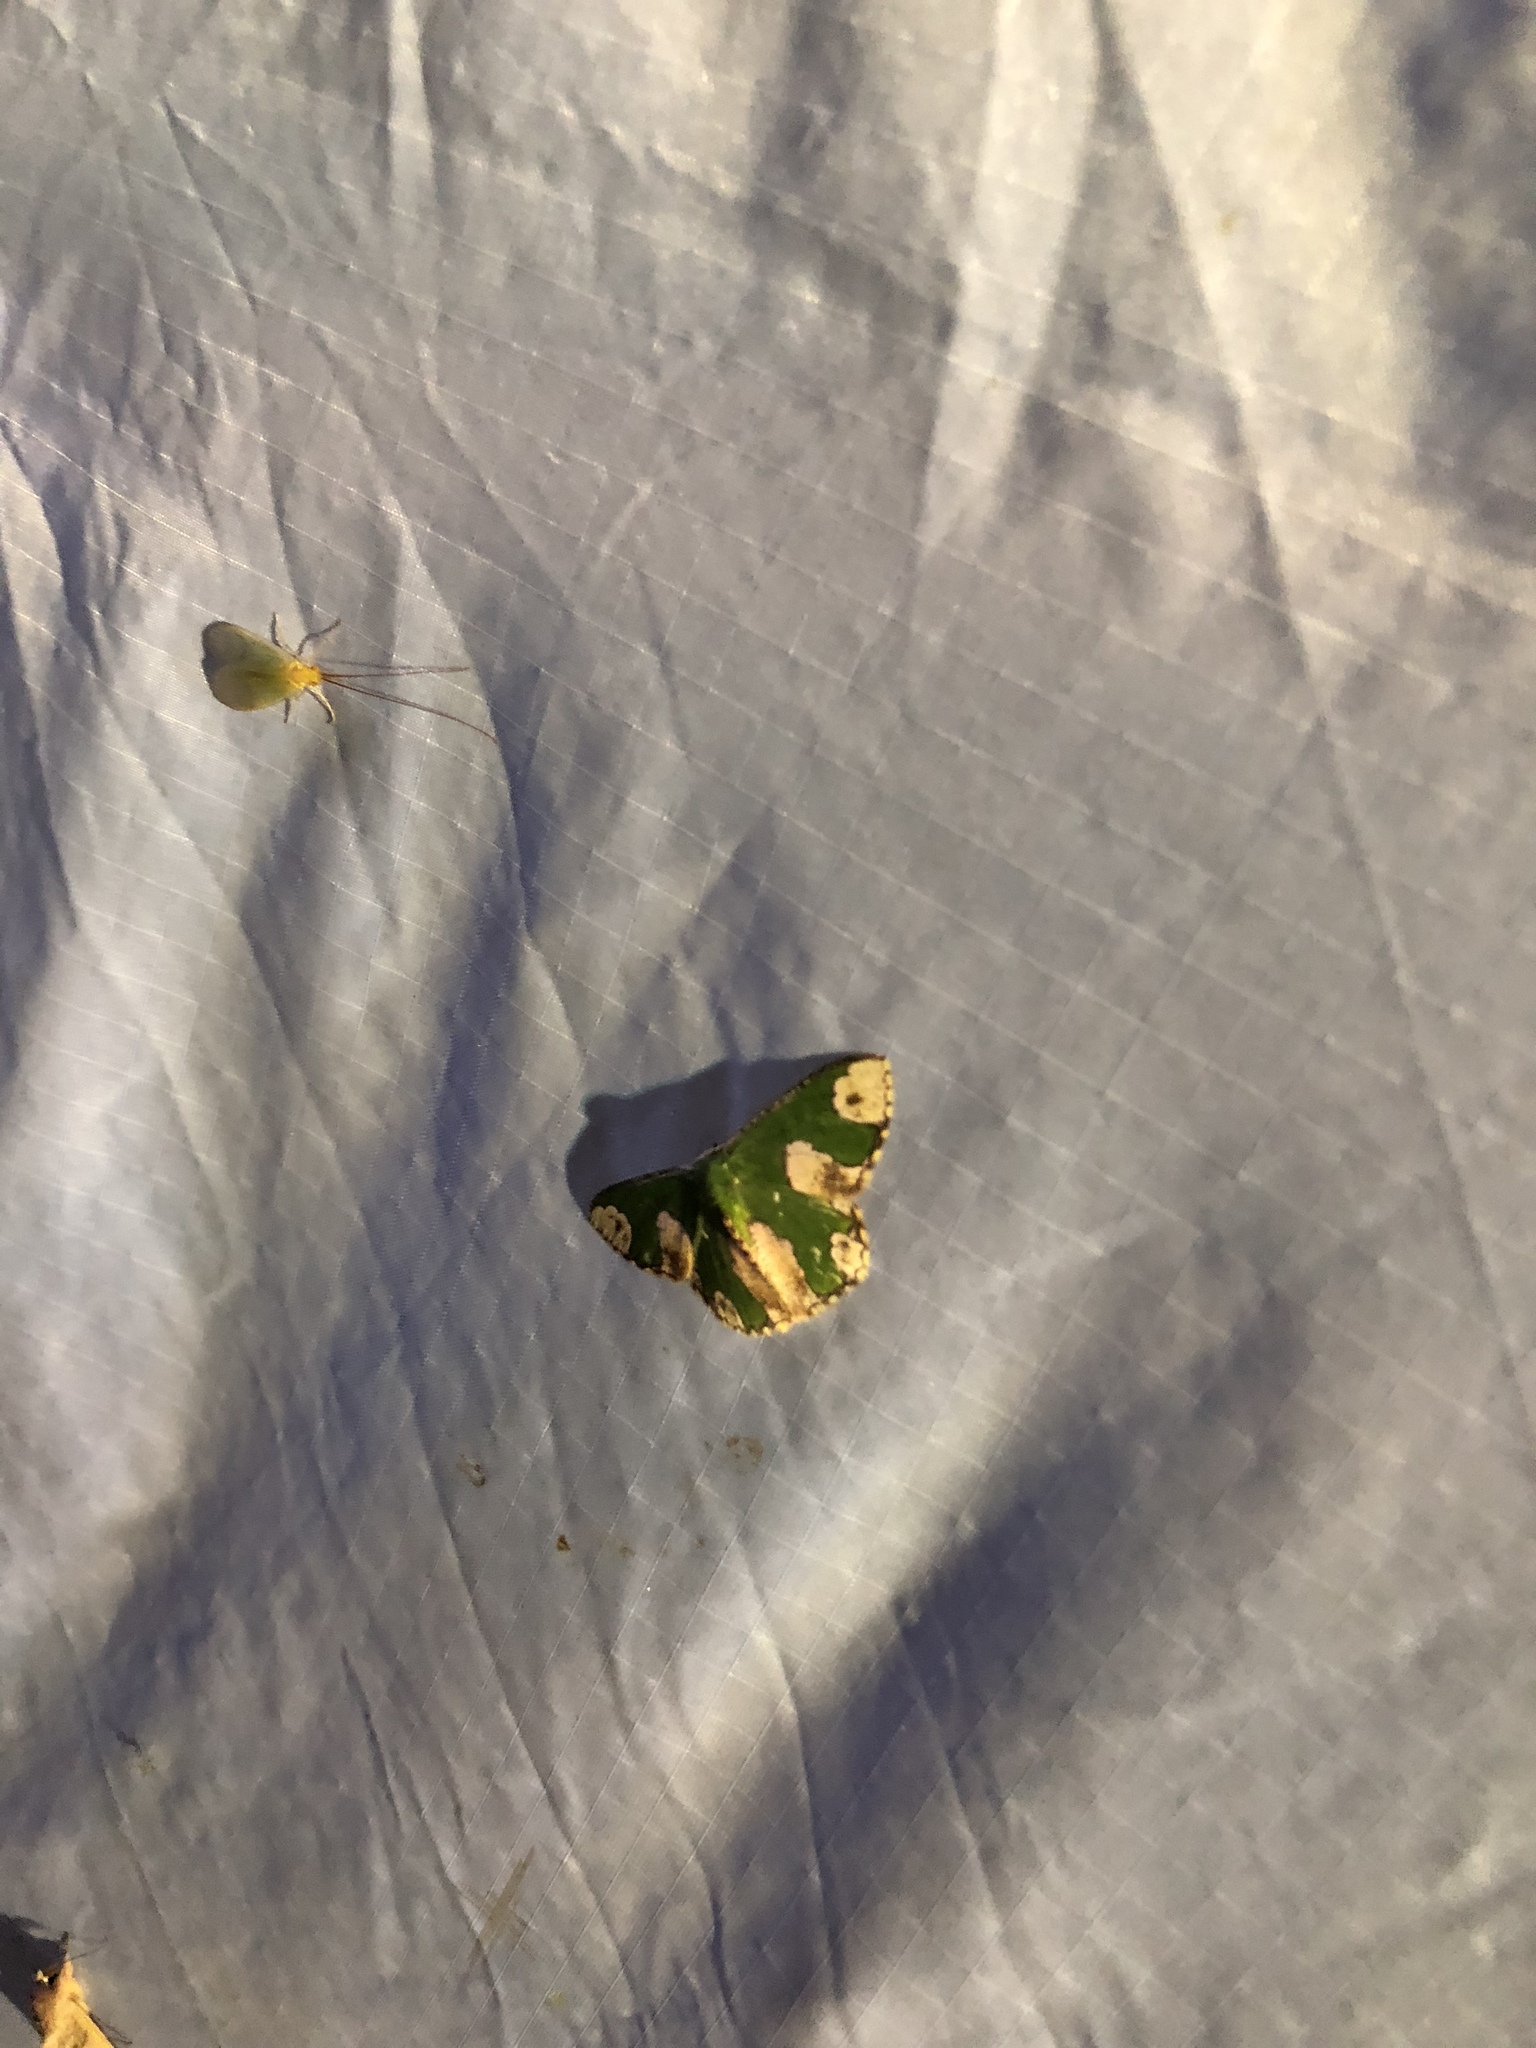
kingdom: Animalia
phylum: Arthropoda
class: Insecta
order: Lepidoptera
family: Geometridae
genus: Oospila
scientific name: Oospila ruptimacula
